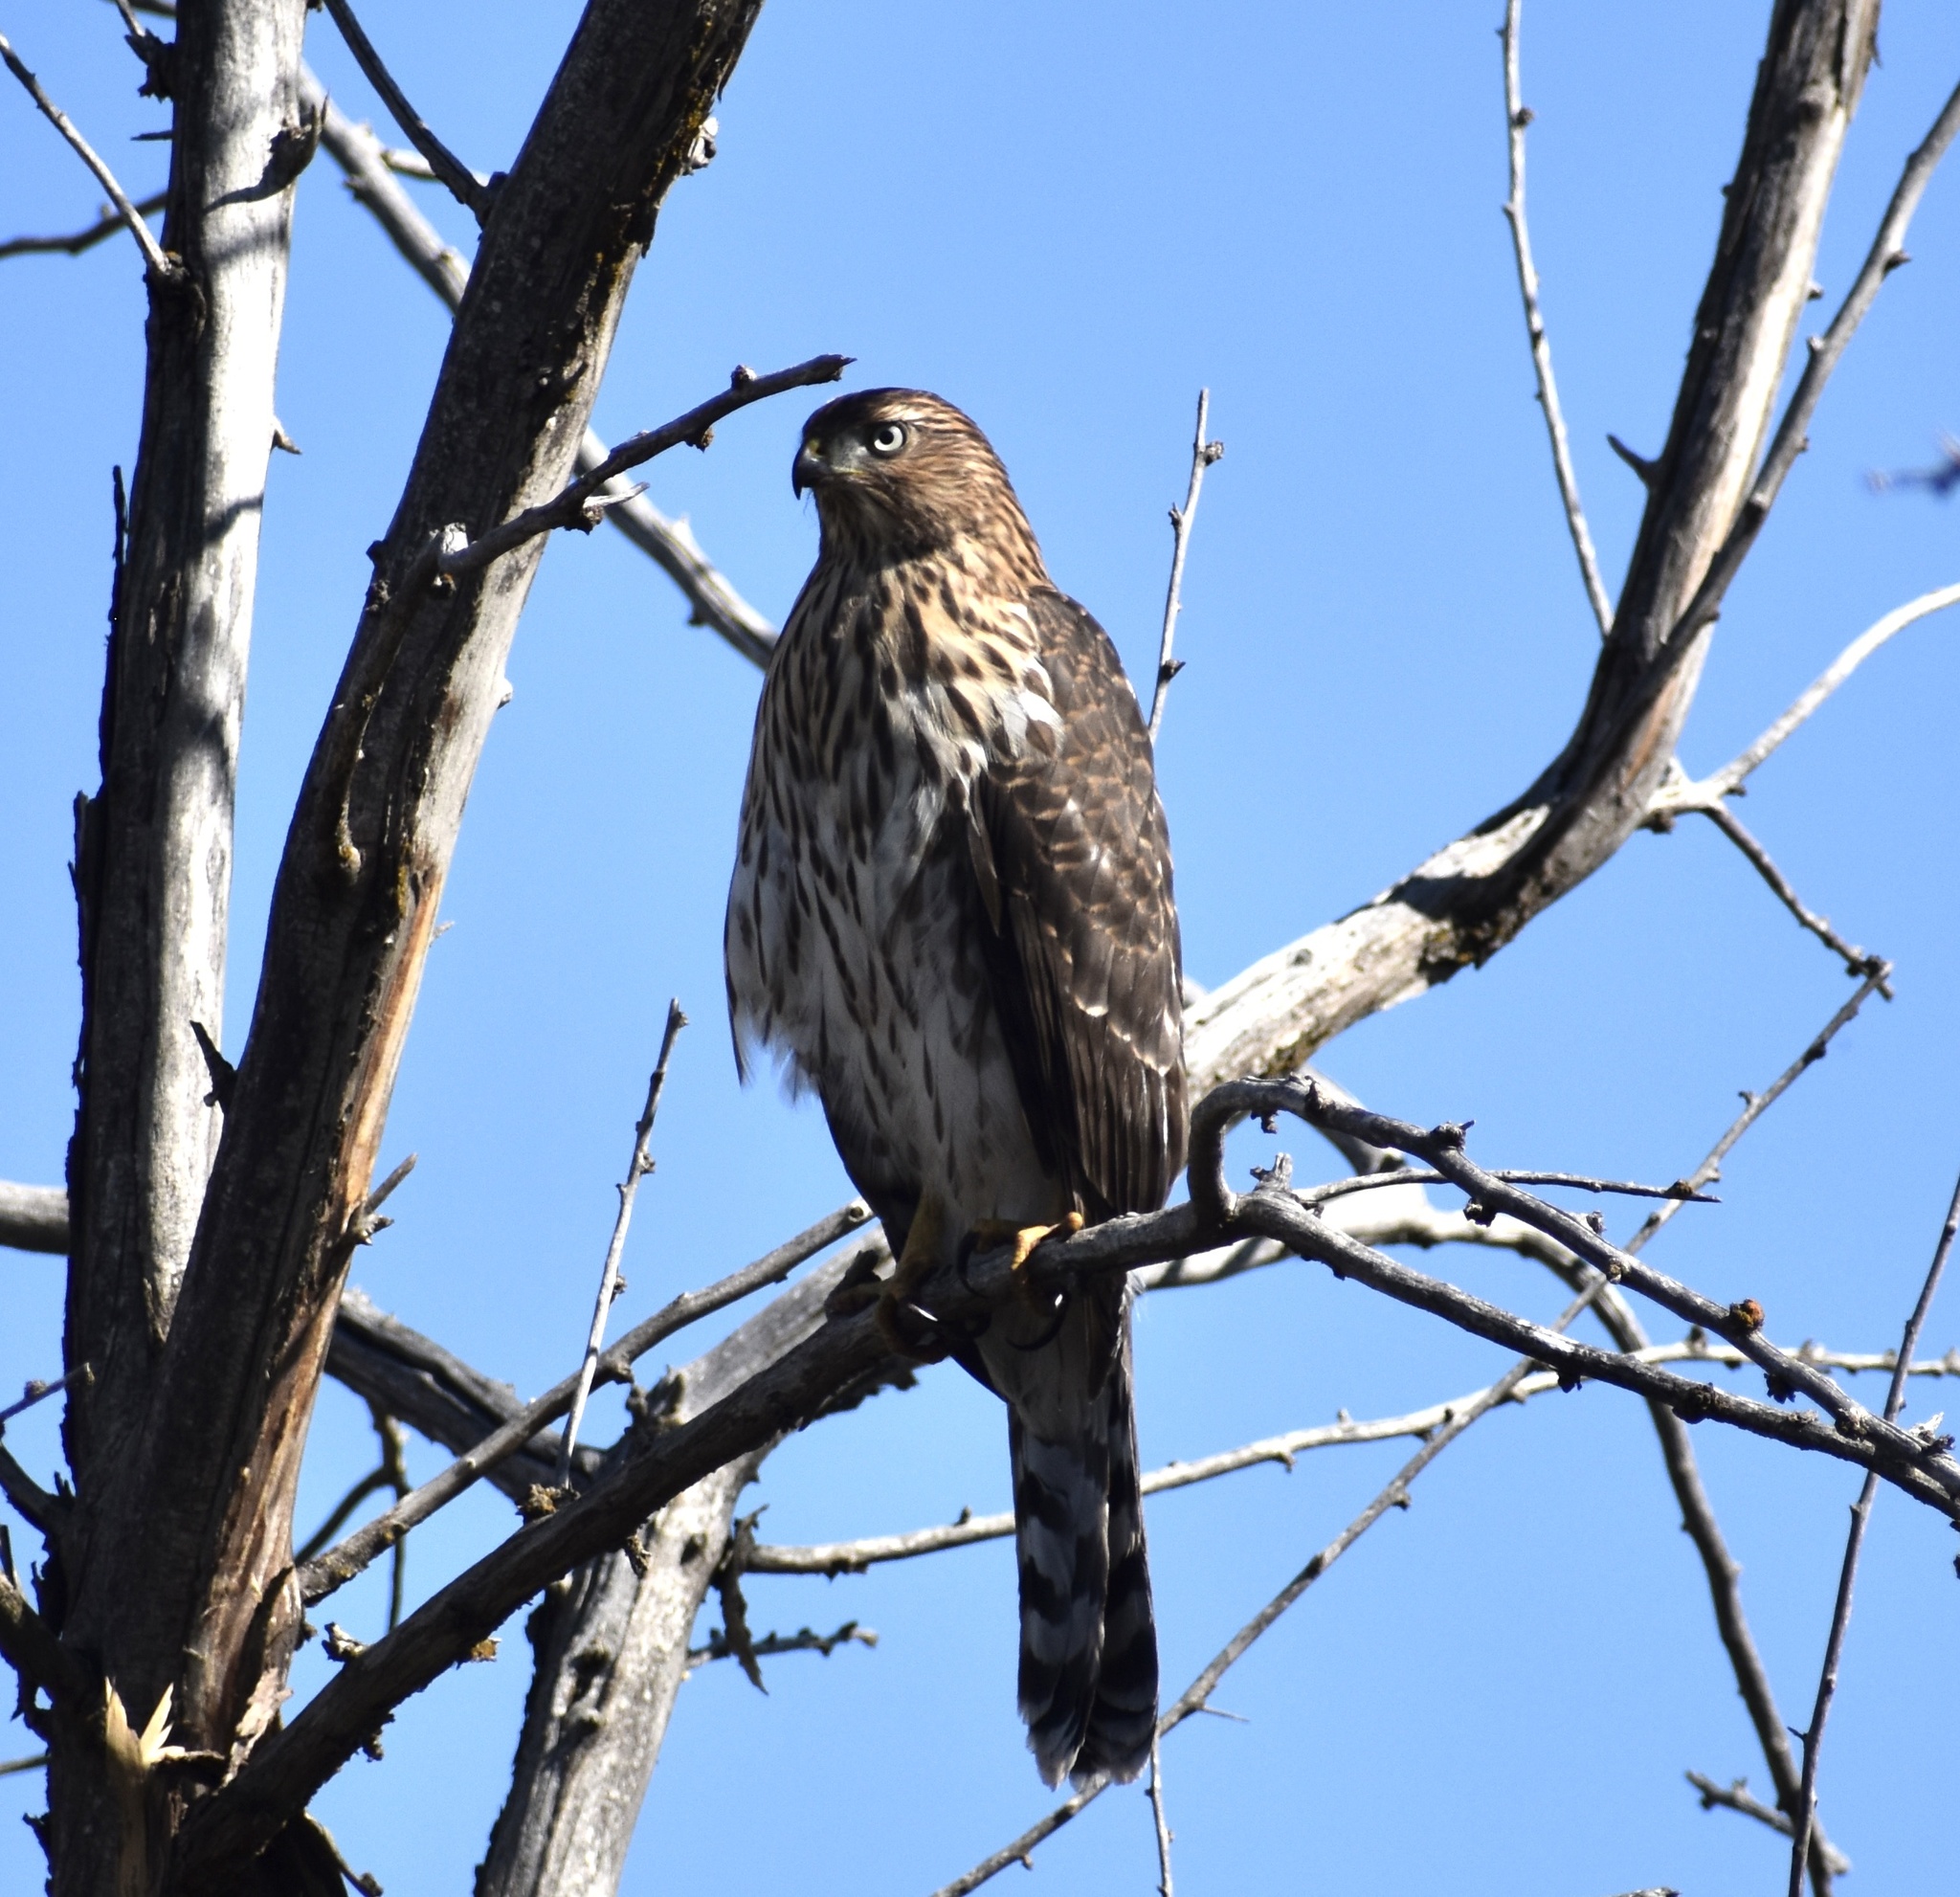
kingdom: Animalia
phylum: Chordata
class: Aves
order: Accipitriformes
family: Accipitridae
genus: Accipiter
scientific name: Accipiter cooperii
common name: Cooper's hawk
